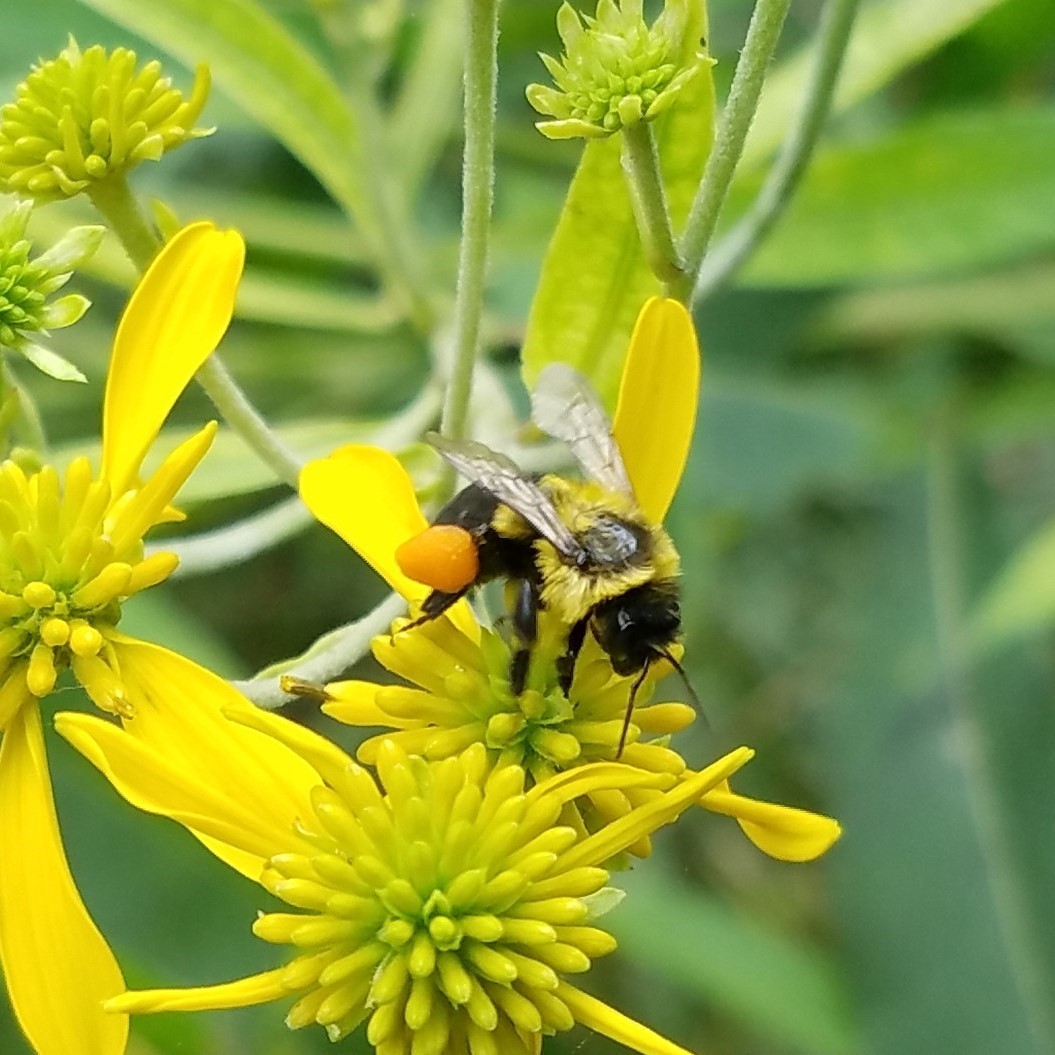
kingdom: Animalia
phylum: Arthropoda
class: Insecta
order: Hymenoptera
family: Apidae
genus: Bombus
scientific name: Bombus impatiens
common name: Common eastern bumble bee
